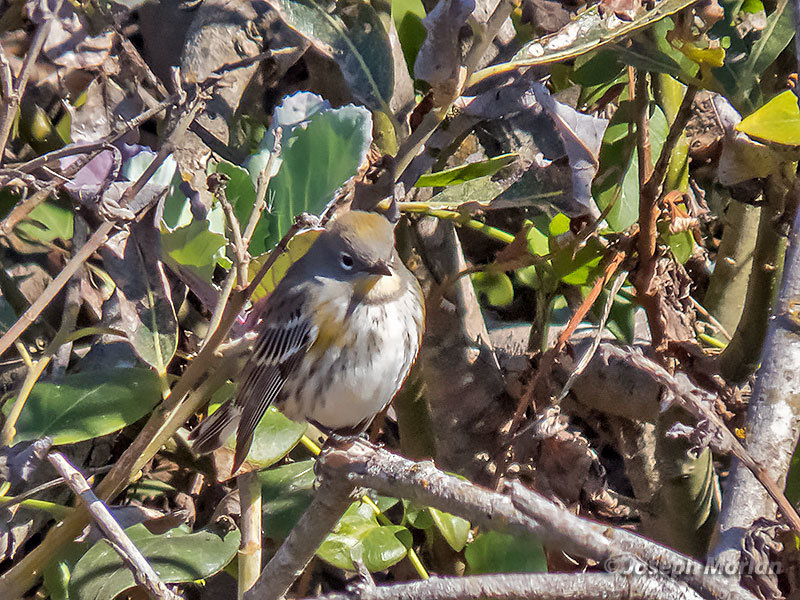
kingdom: Animalia
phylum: Chordata
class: Aves
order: Passeriformes
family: Parulidae
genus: Setophaga
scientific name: Setophaga coronata
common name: Myrtle warbler
